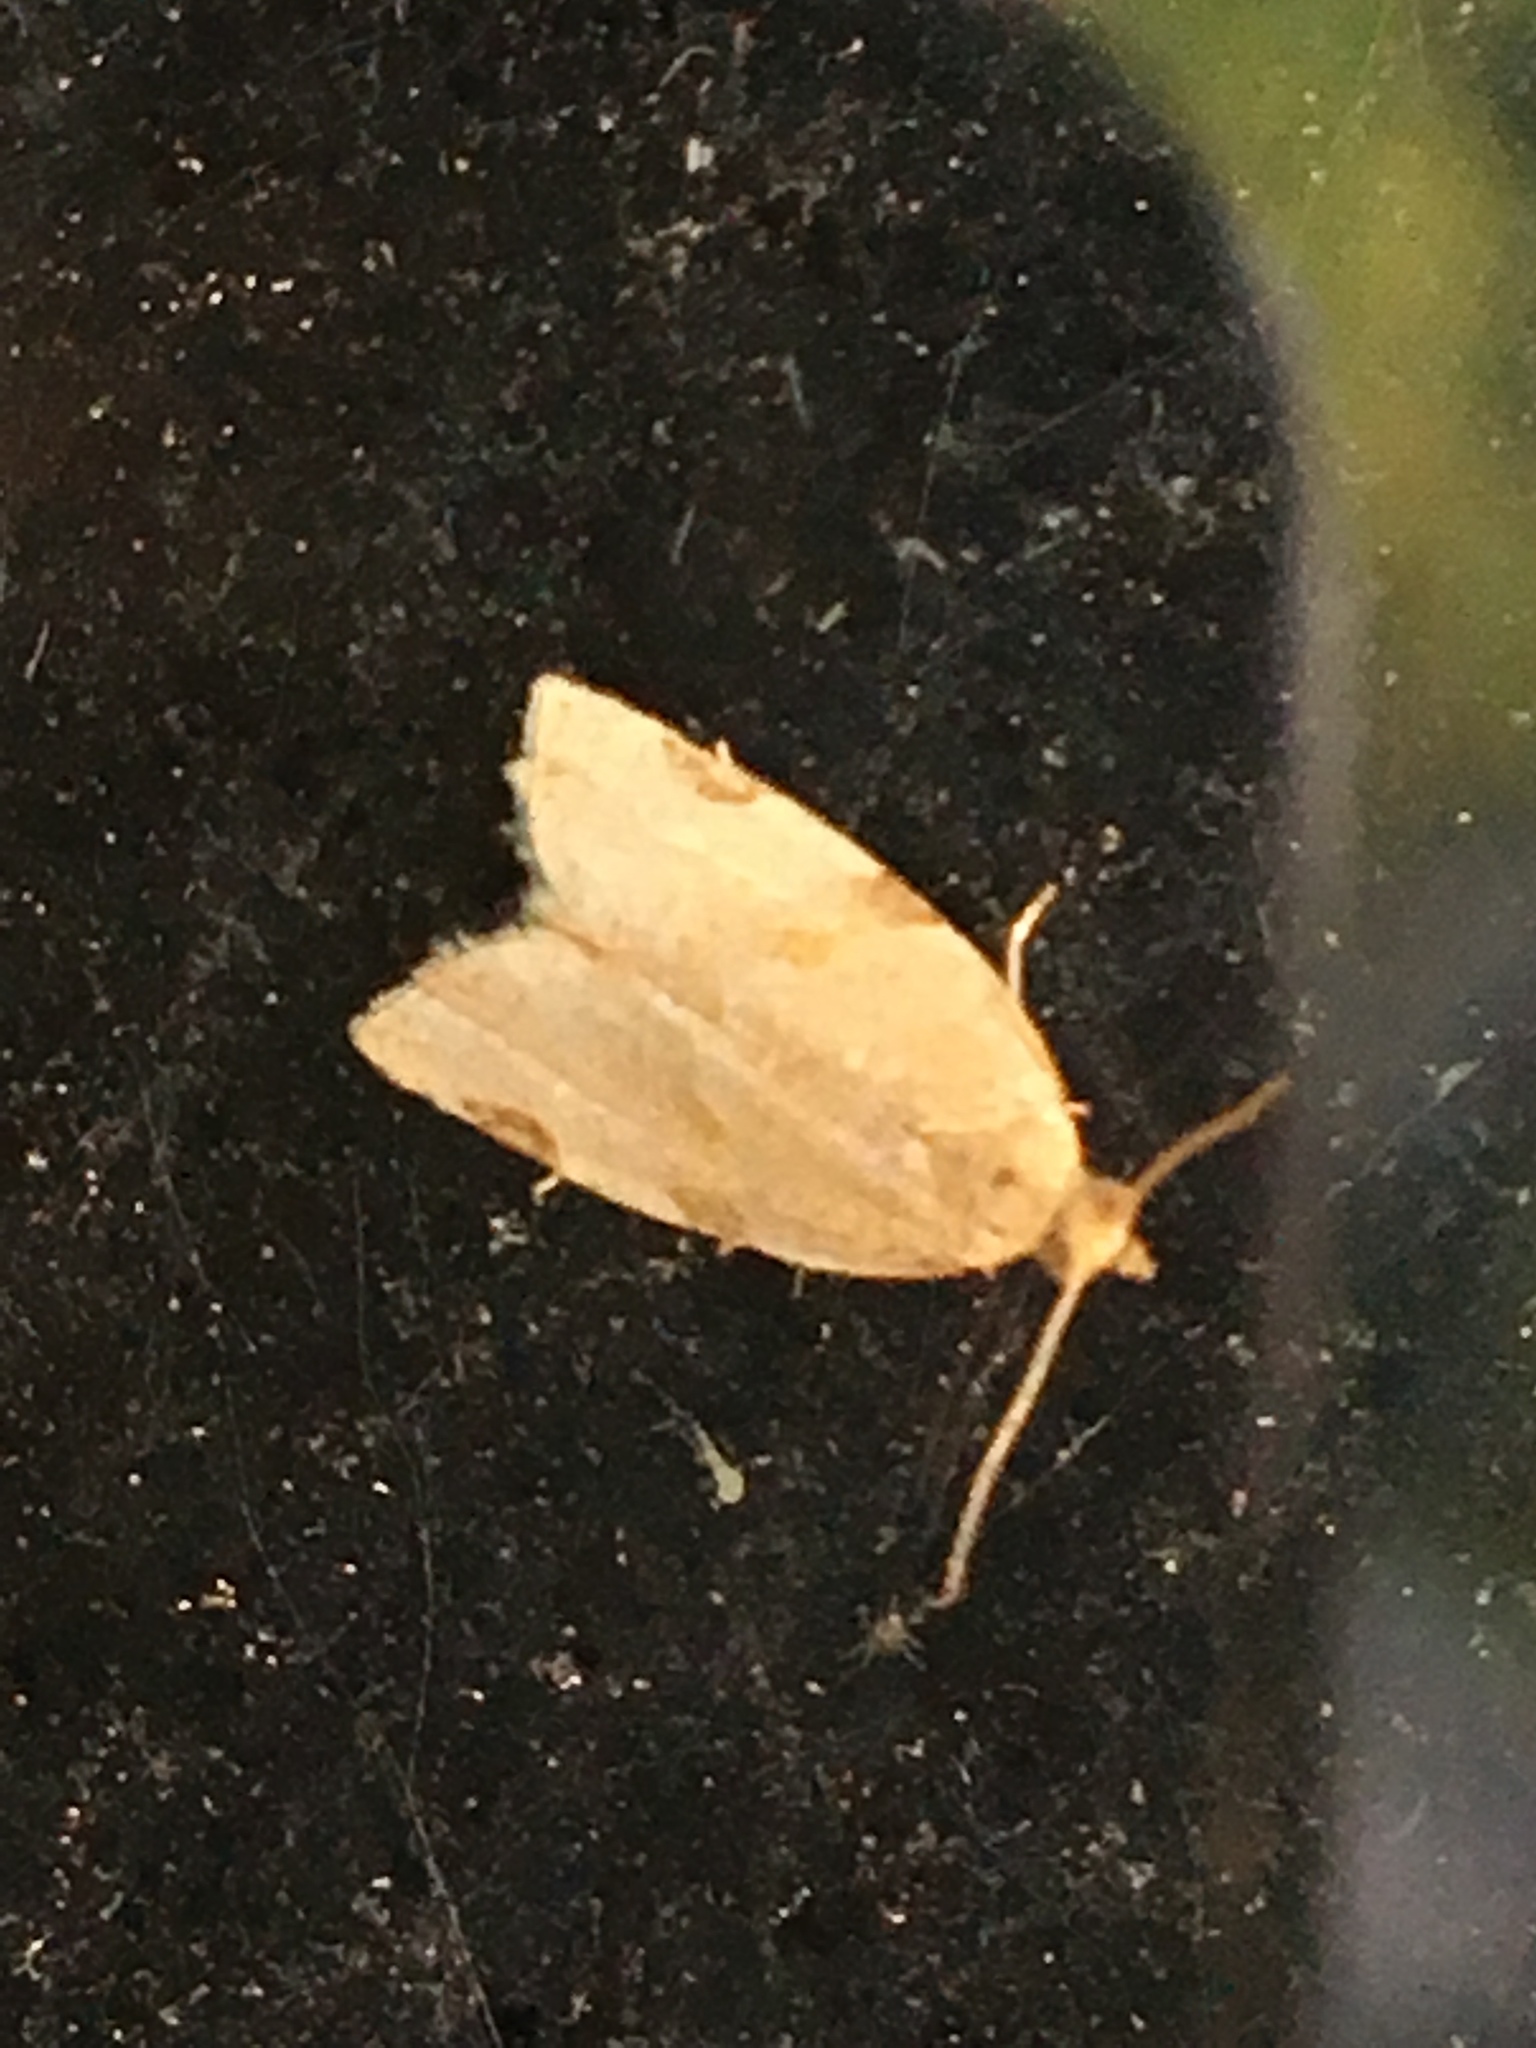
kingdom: Animalia
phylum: Arthropoda
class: Insecta
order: Lepidoptera
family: Tortricidae
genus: Clepsis
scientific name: Clepsis virescana
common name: Greenish apple moth
